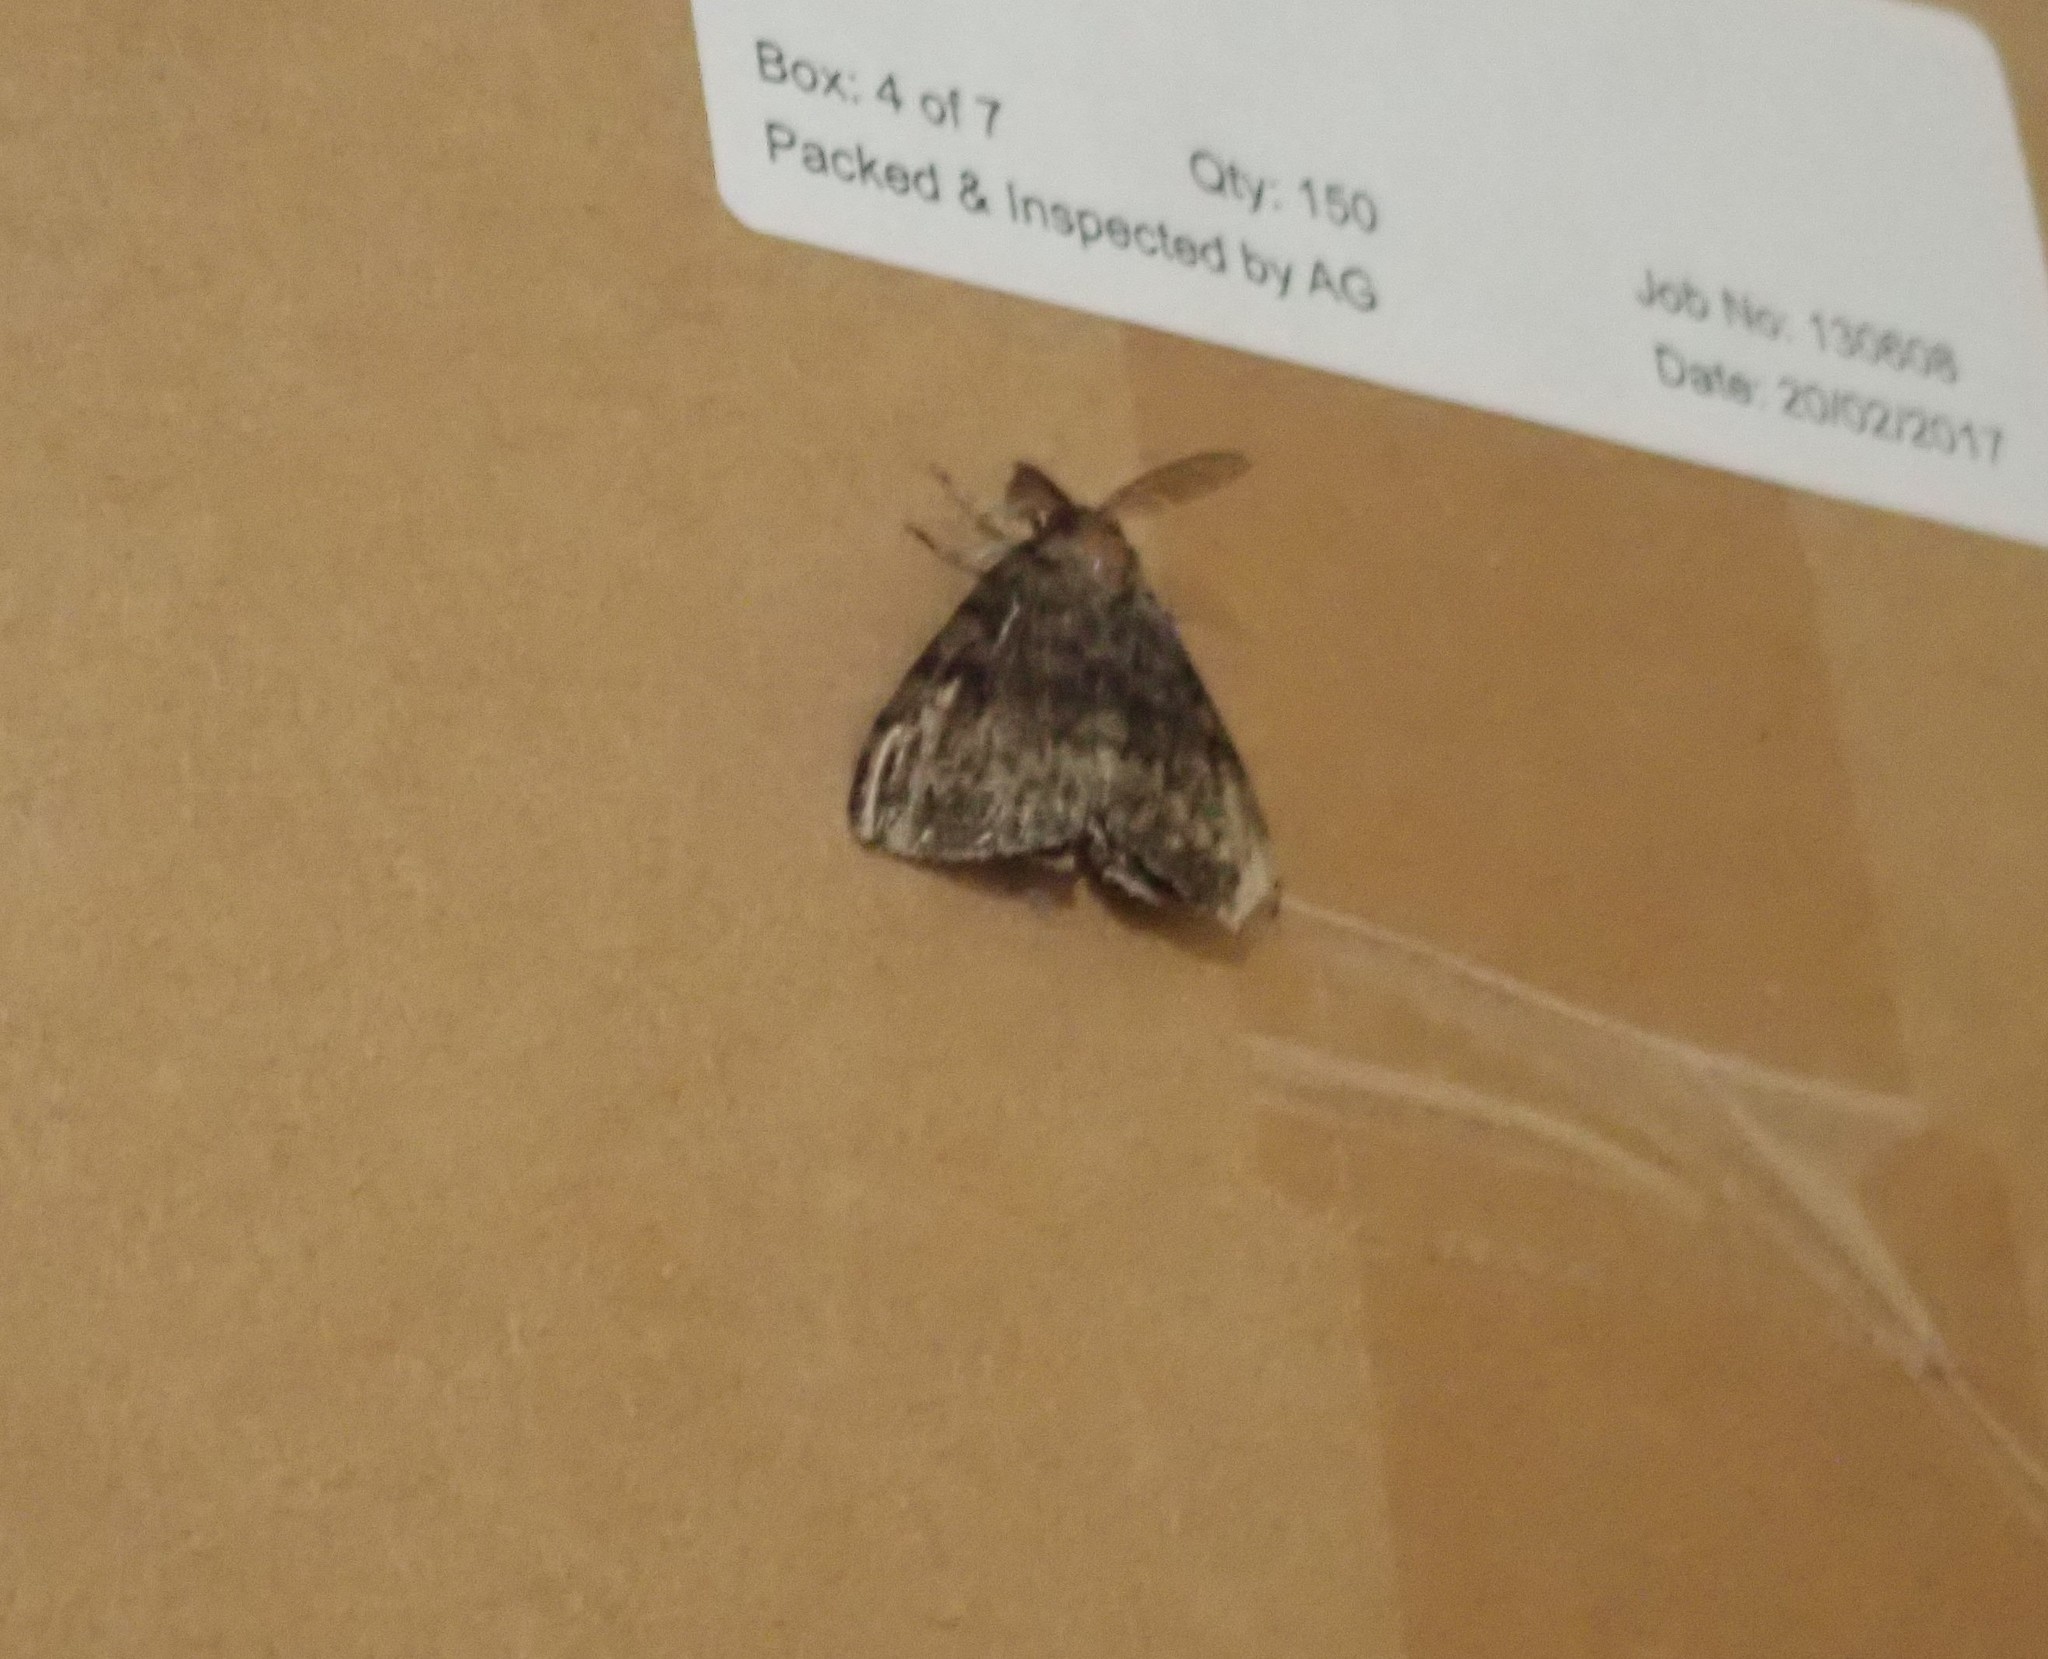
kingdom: Animalia
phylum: Arthropoda
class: Insecta
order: Lepidoptera
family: Erebidae
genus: Lymantria
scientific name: Lymantria dispar
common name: Gypsy moth
